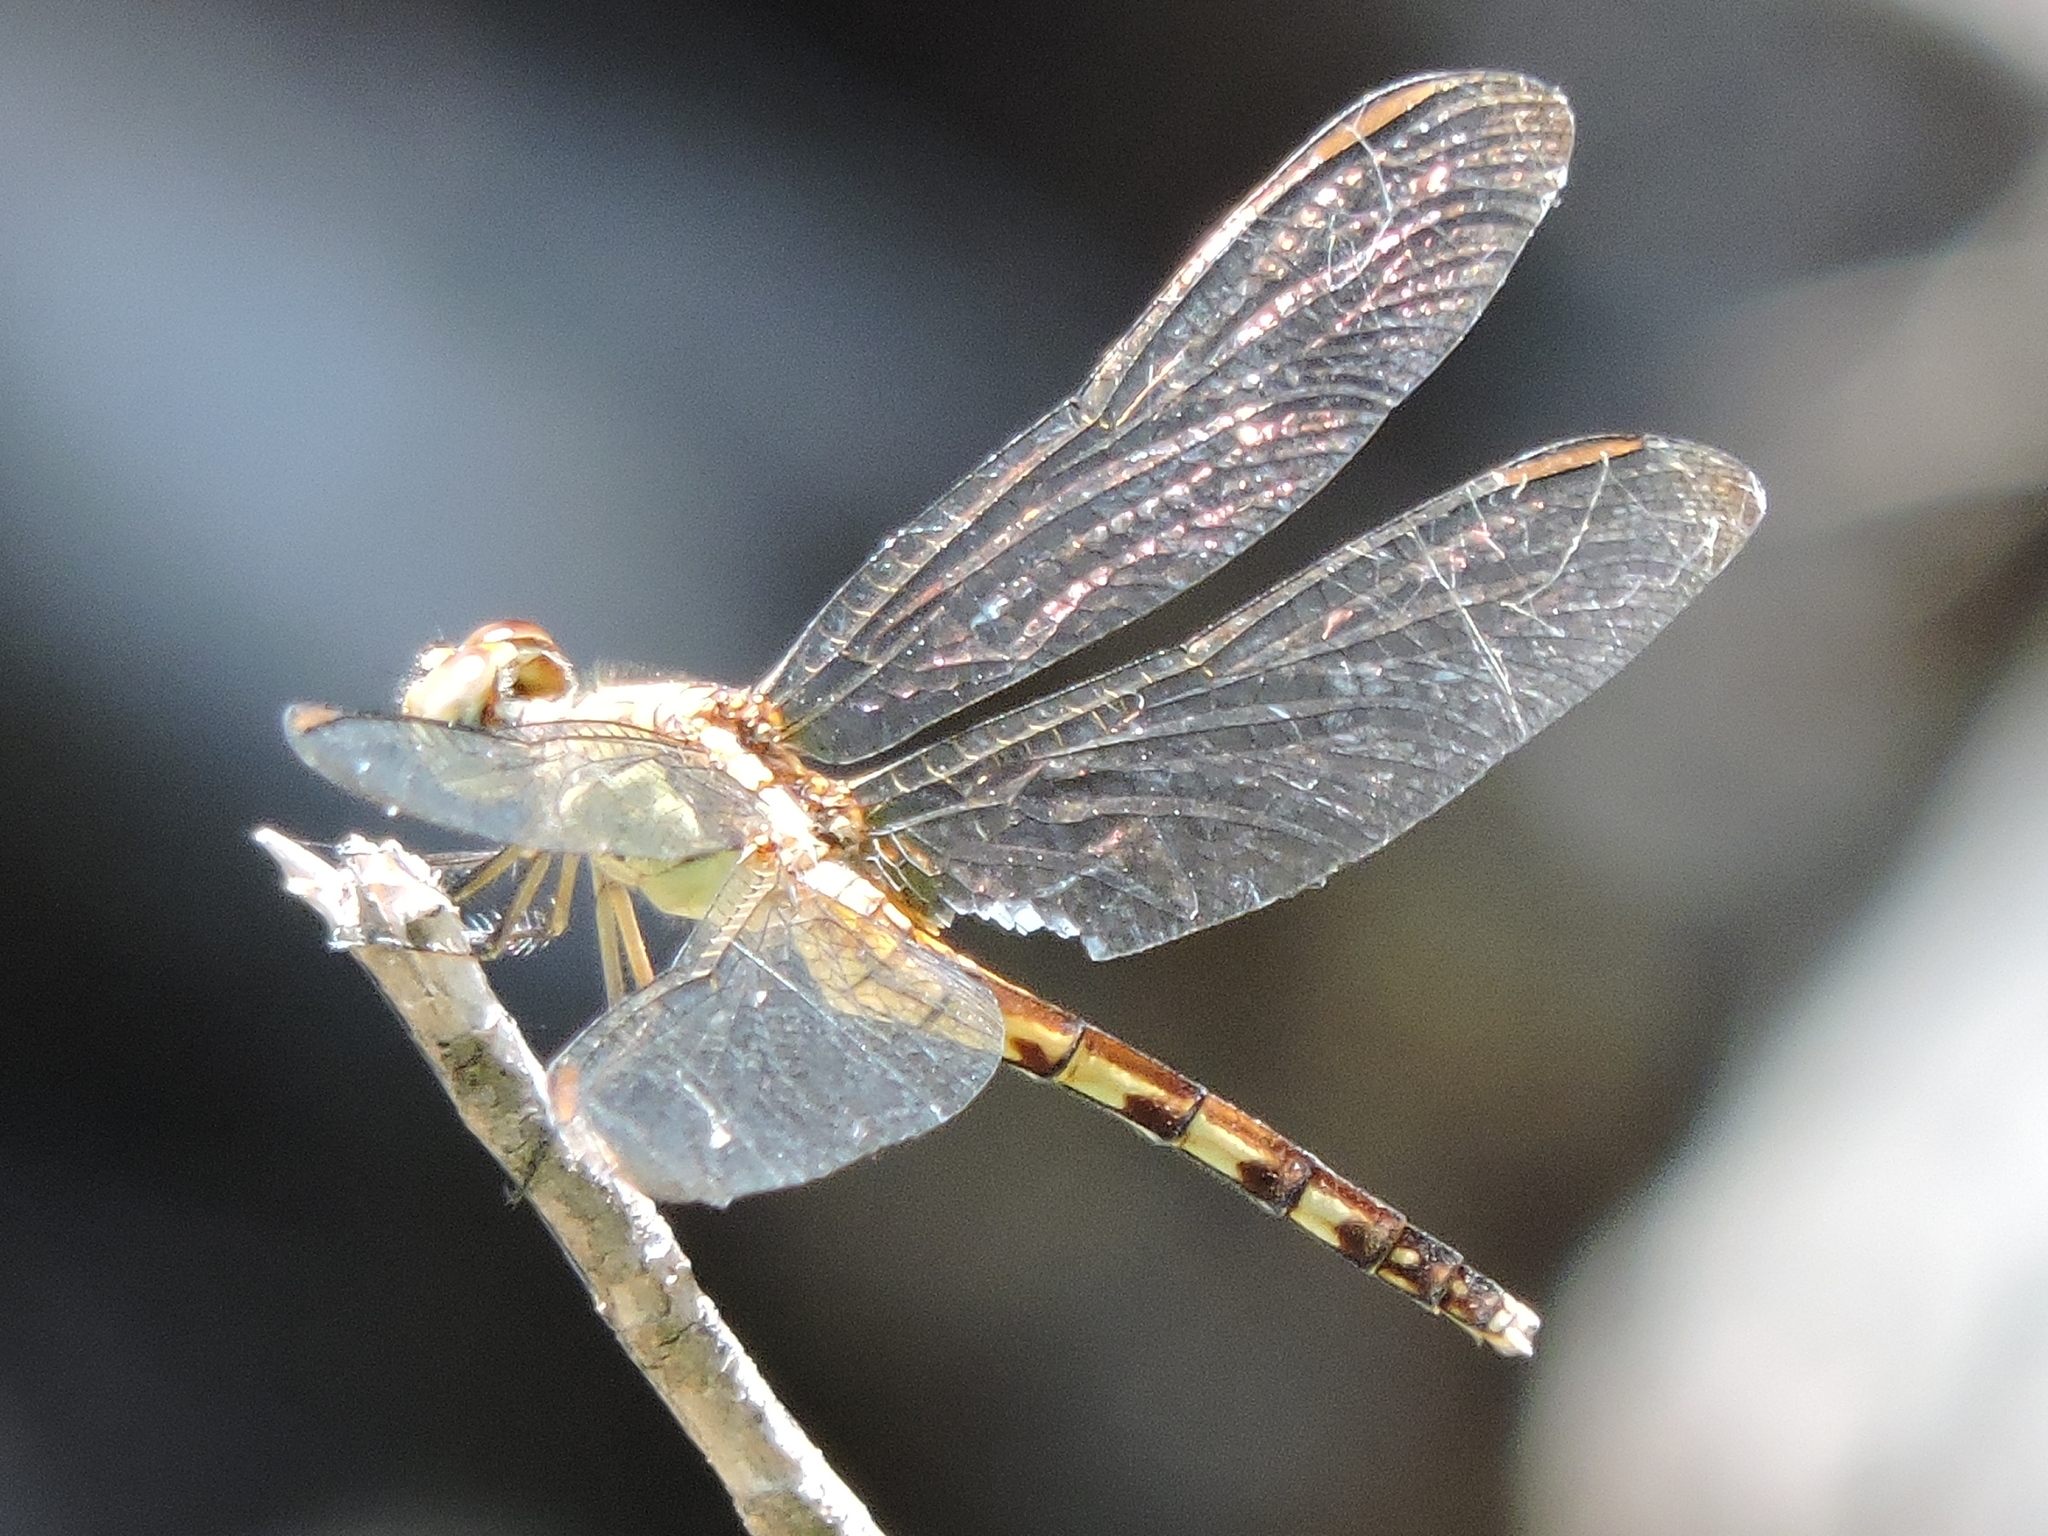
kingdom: Animalia
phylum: Arthropoda
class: Insecta
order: Odonata
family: Libellulidae
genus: Erythrodiplax
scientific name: Erythrodiplax umbrata
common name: Band-winged dragonlet
